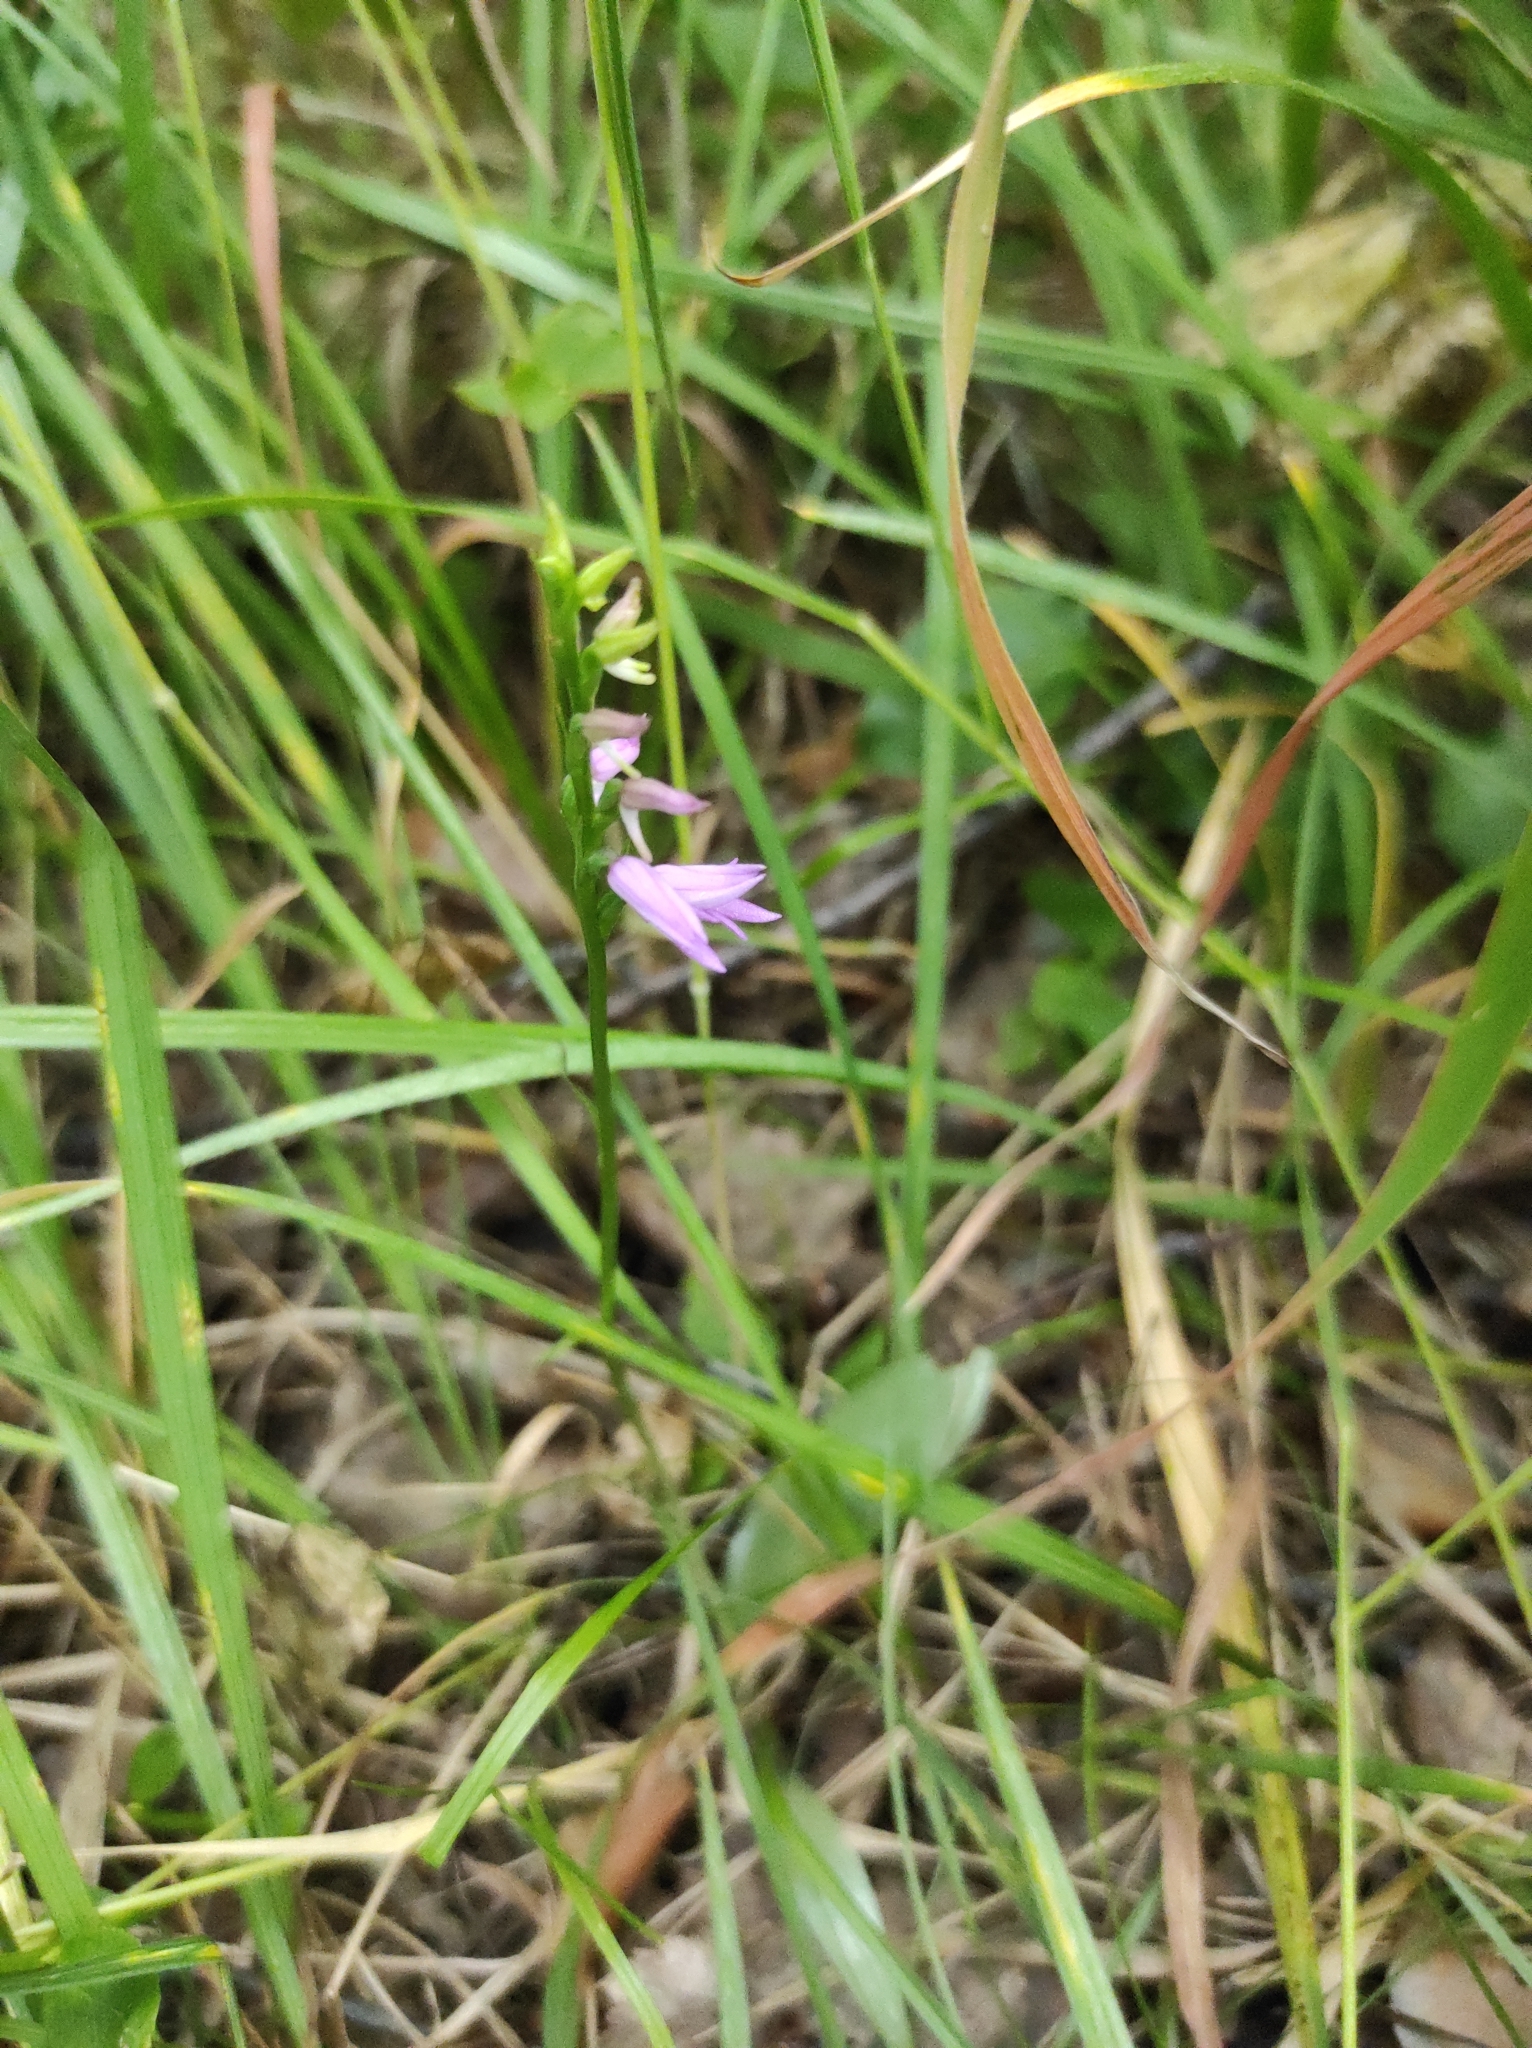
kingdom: Plantae
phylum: Tracheophyta
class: Liliopsida
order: Asparagales
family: Orchidaceae
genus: Hemipilia
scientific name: Hemipilia cucullata
